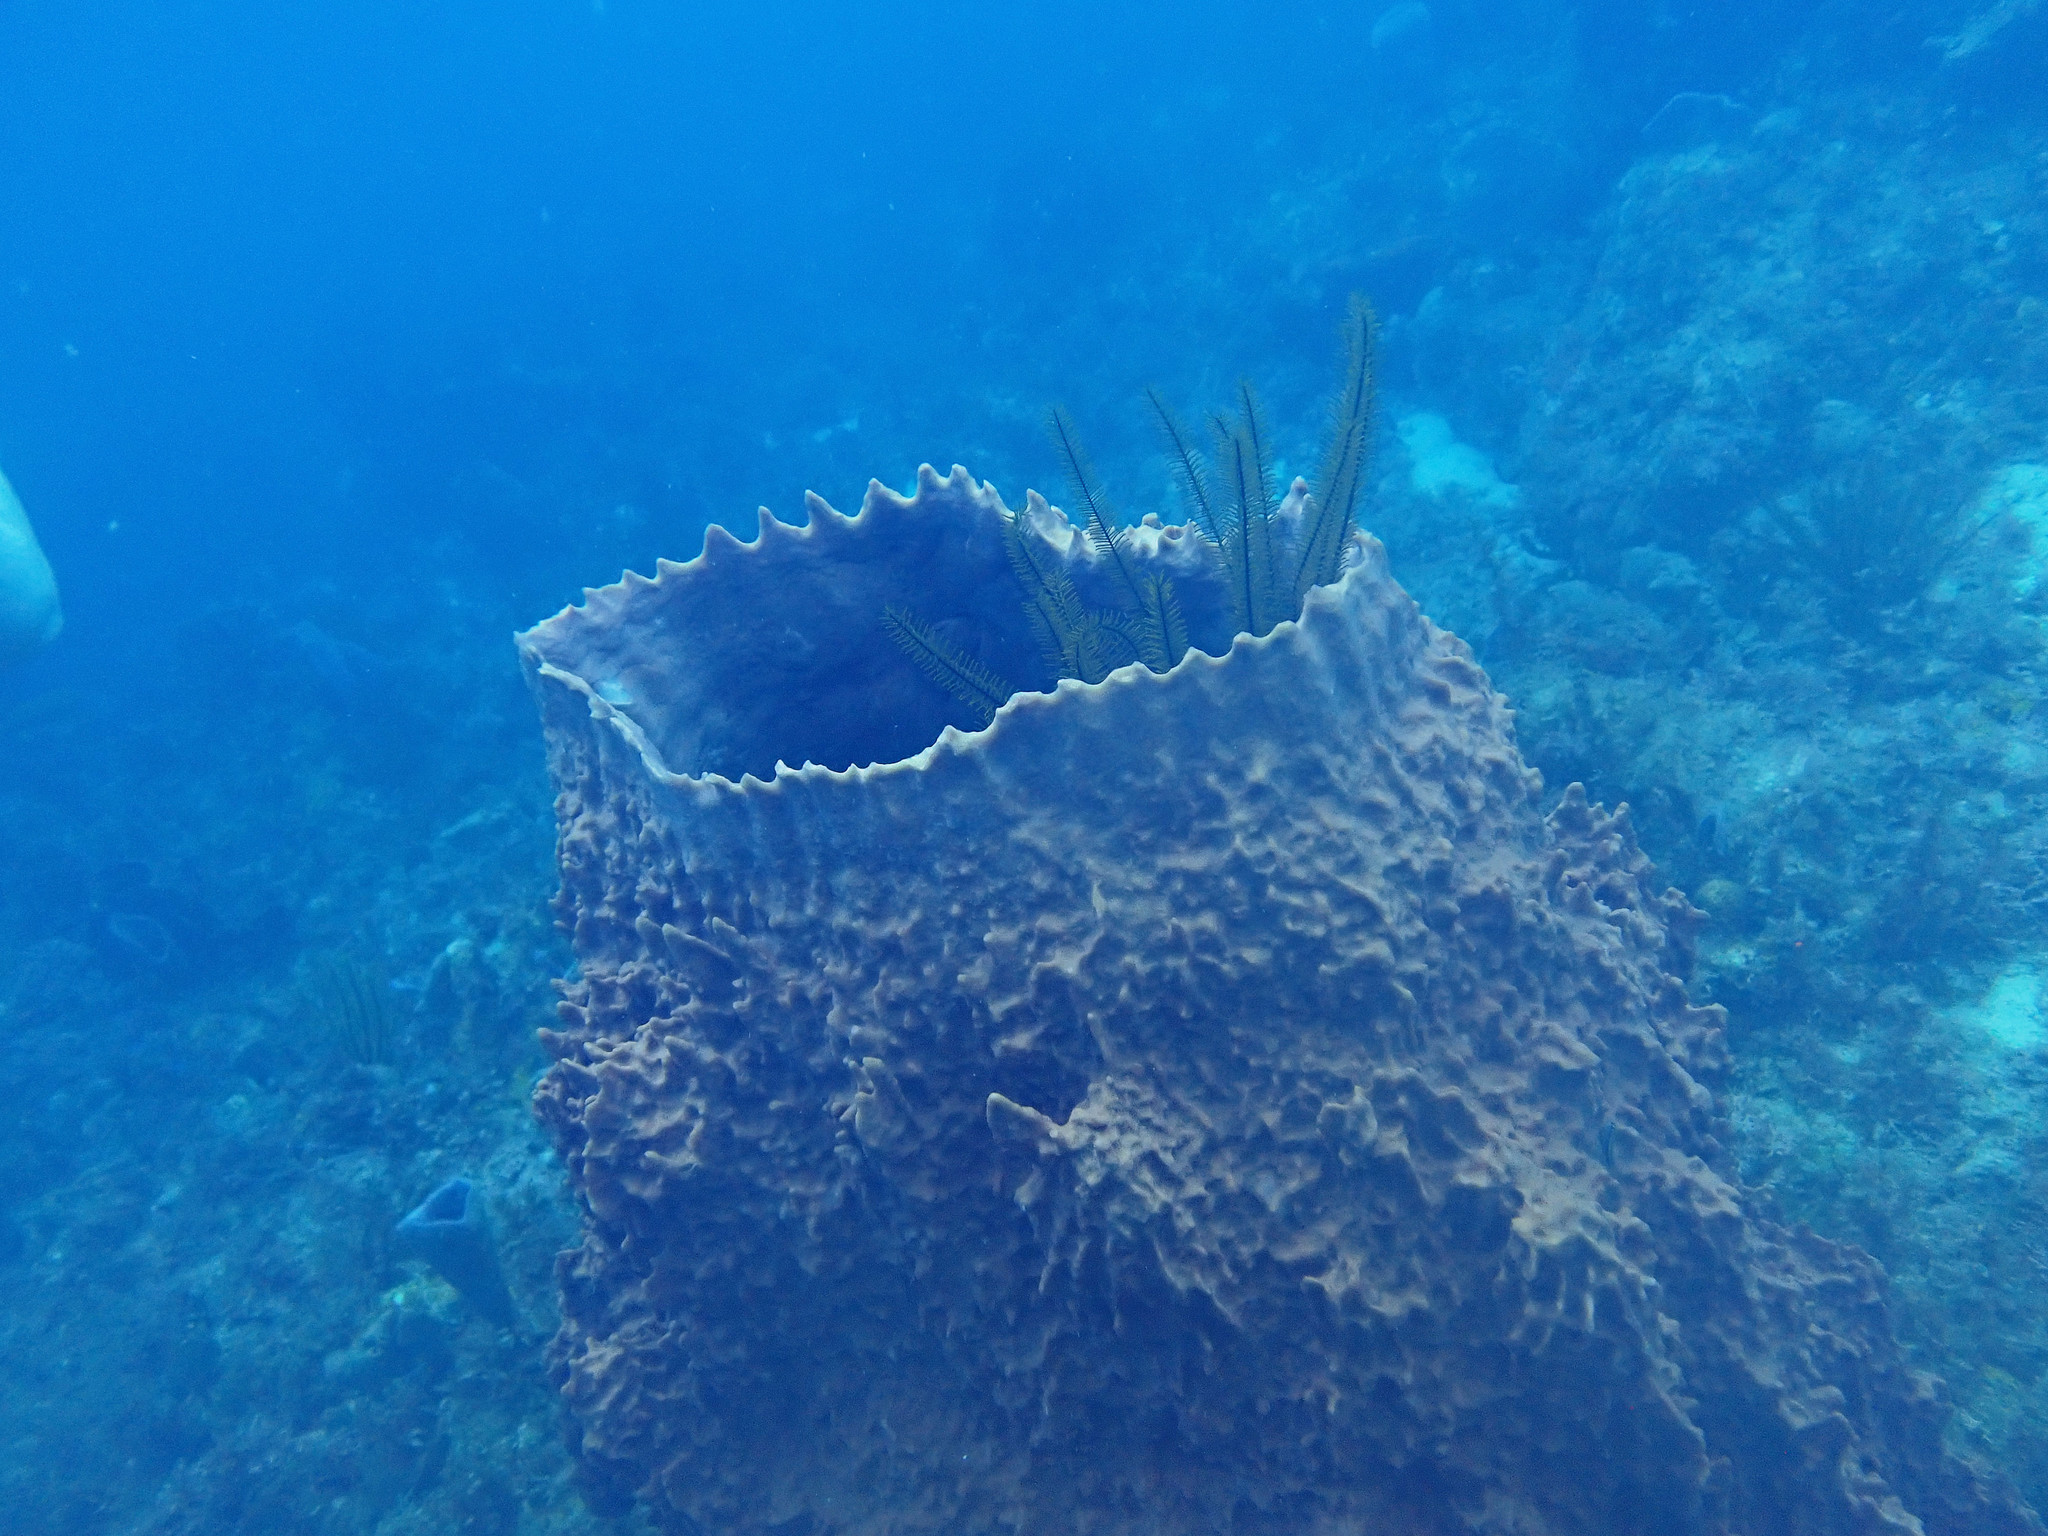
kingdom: Animalia
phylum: Porifera
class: Demospongiae
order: Haplosclerida
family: Petrosiidae
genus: Xestospongia
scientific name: Xestospongia muta
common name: Giant barrel sponge
